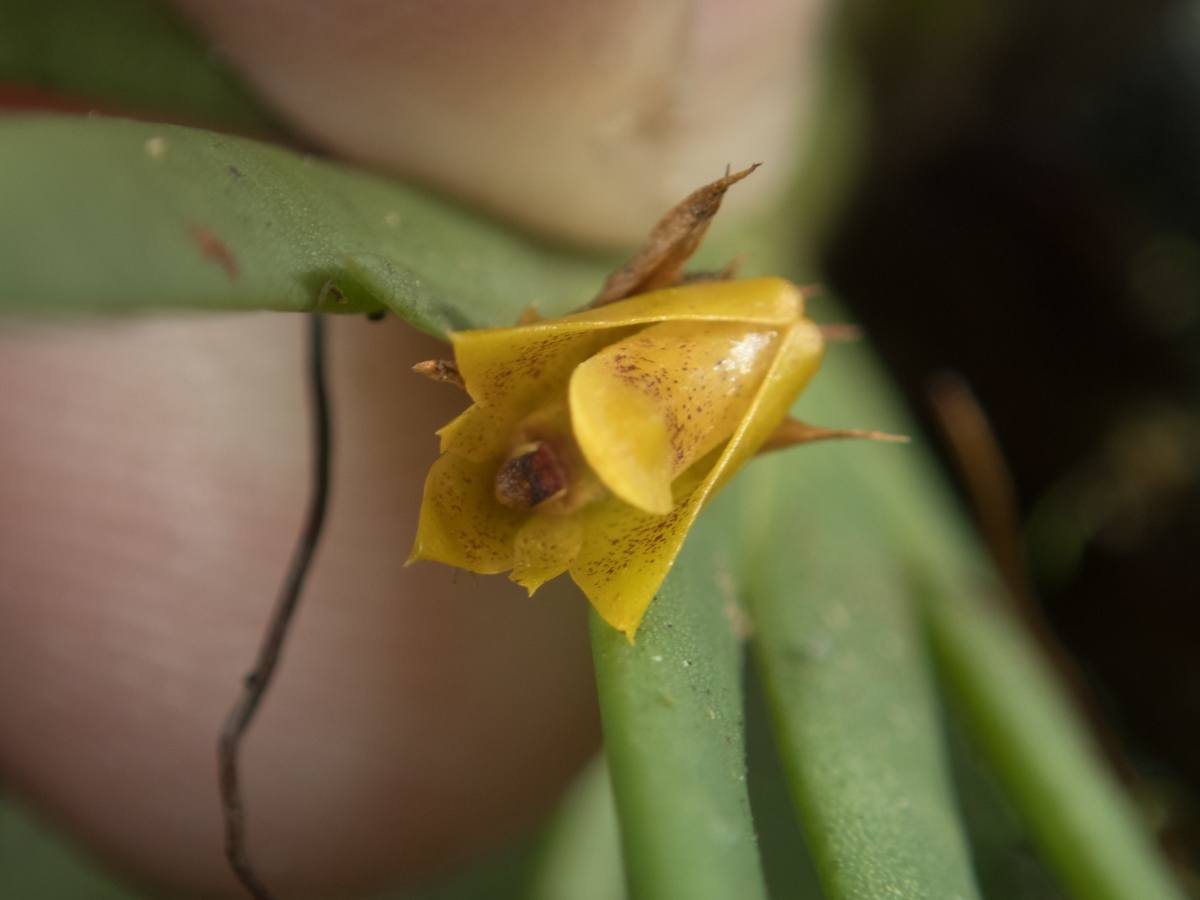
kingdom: Plantae
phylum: Tracheophyta
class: Liliopsida
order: Asparagales
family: Orchidaceae
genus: Oxystophyllum
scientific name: Oxystophyllum carnosum
